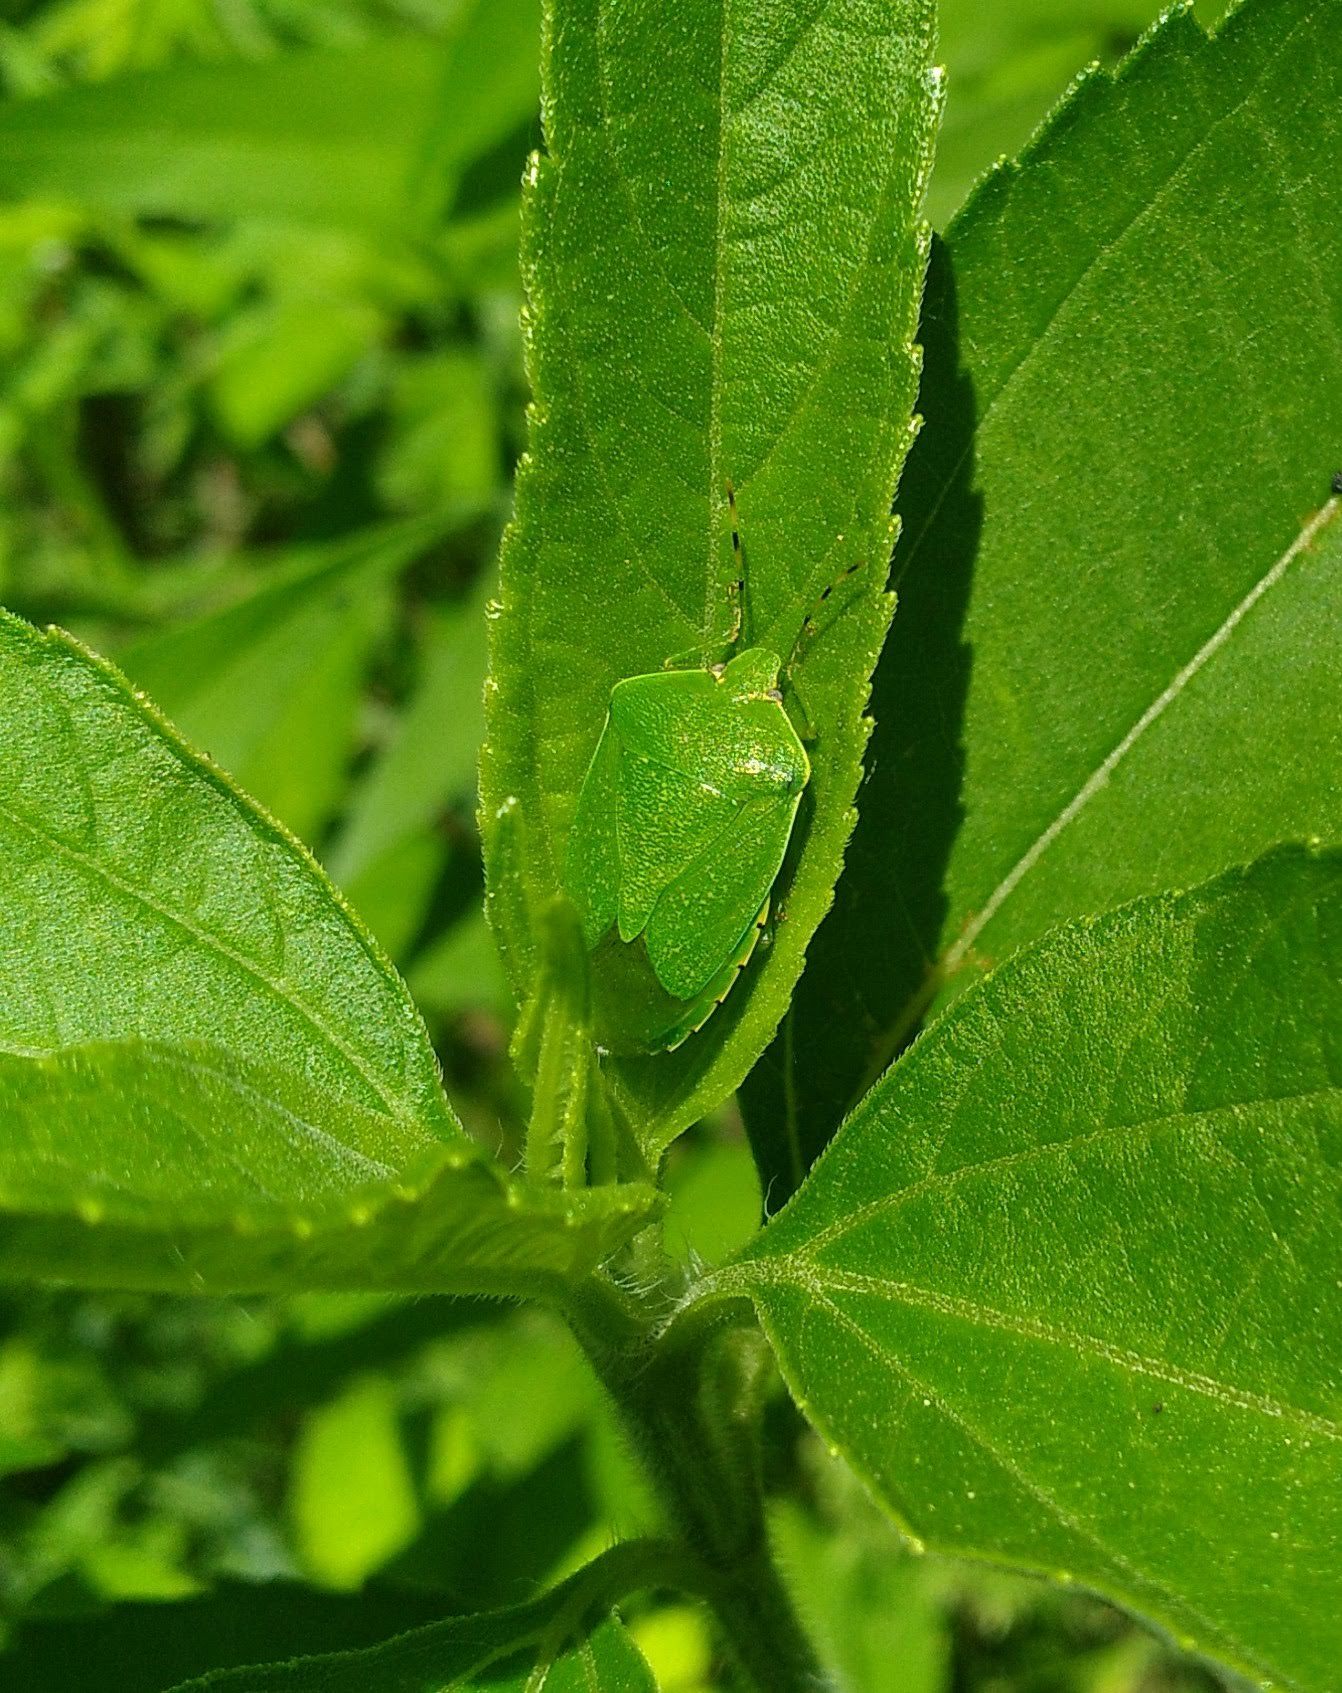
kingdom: Animalia
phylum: Arthropoda
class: Insecta
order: Hemiptera
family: Pentatomidae
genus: Chinavia
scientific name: Chinavia hilaris
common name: Green stink bug
